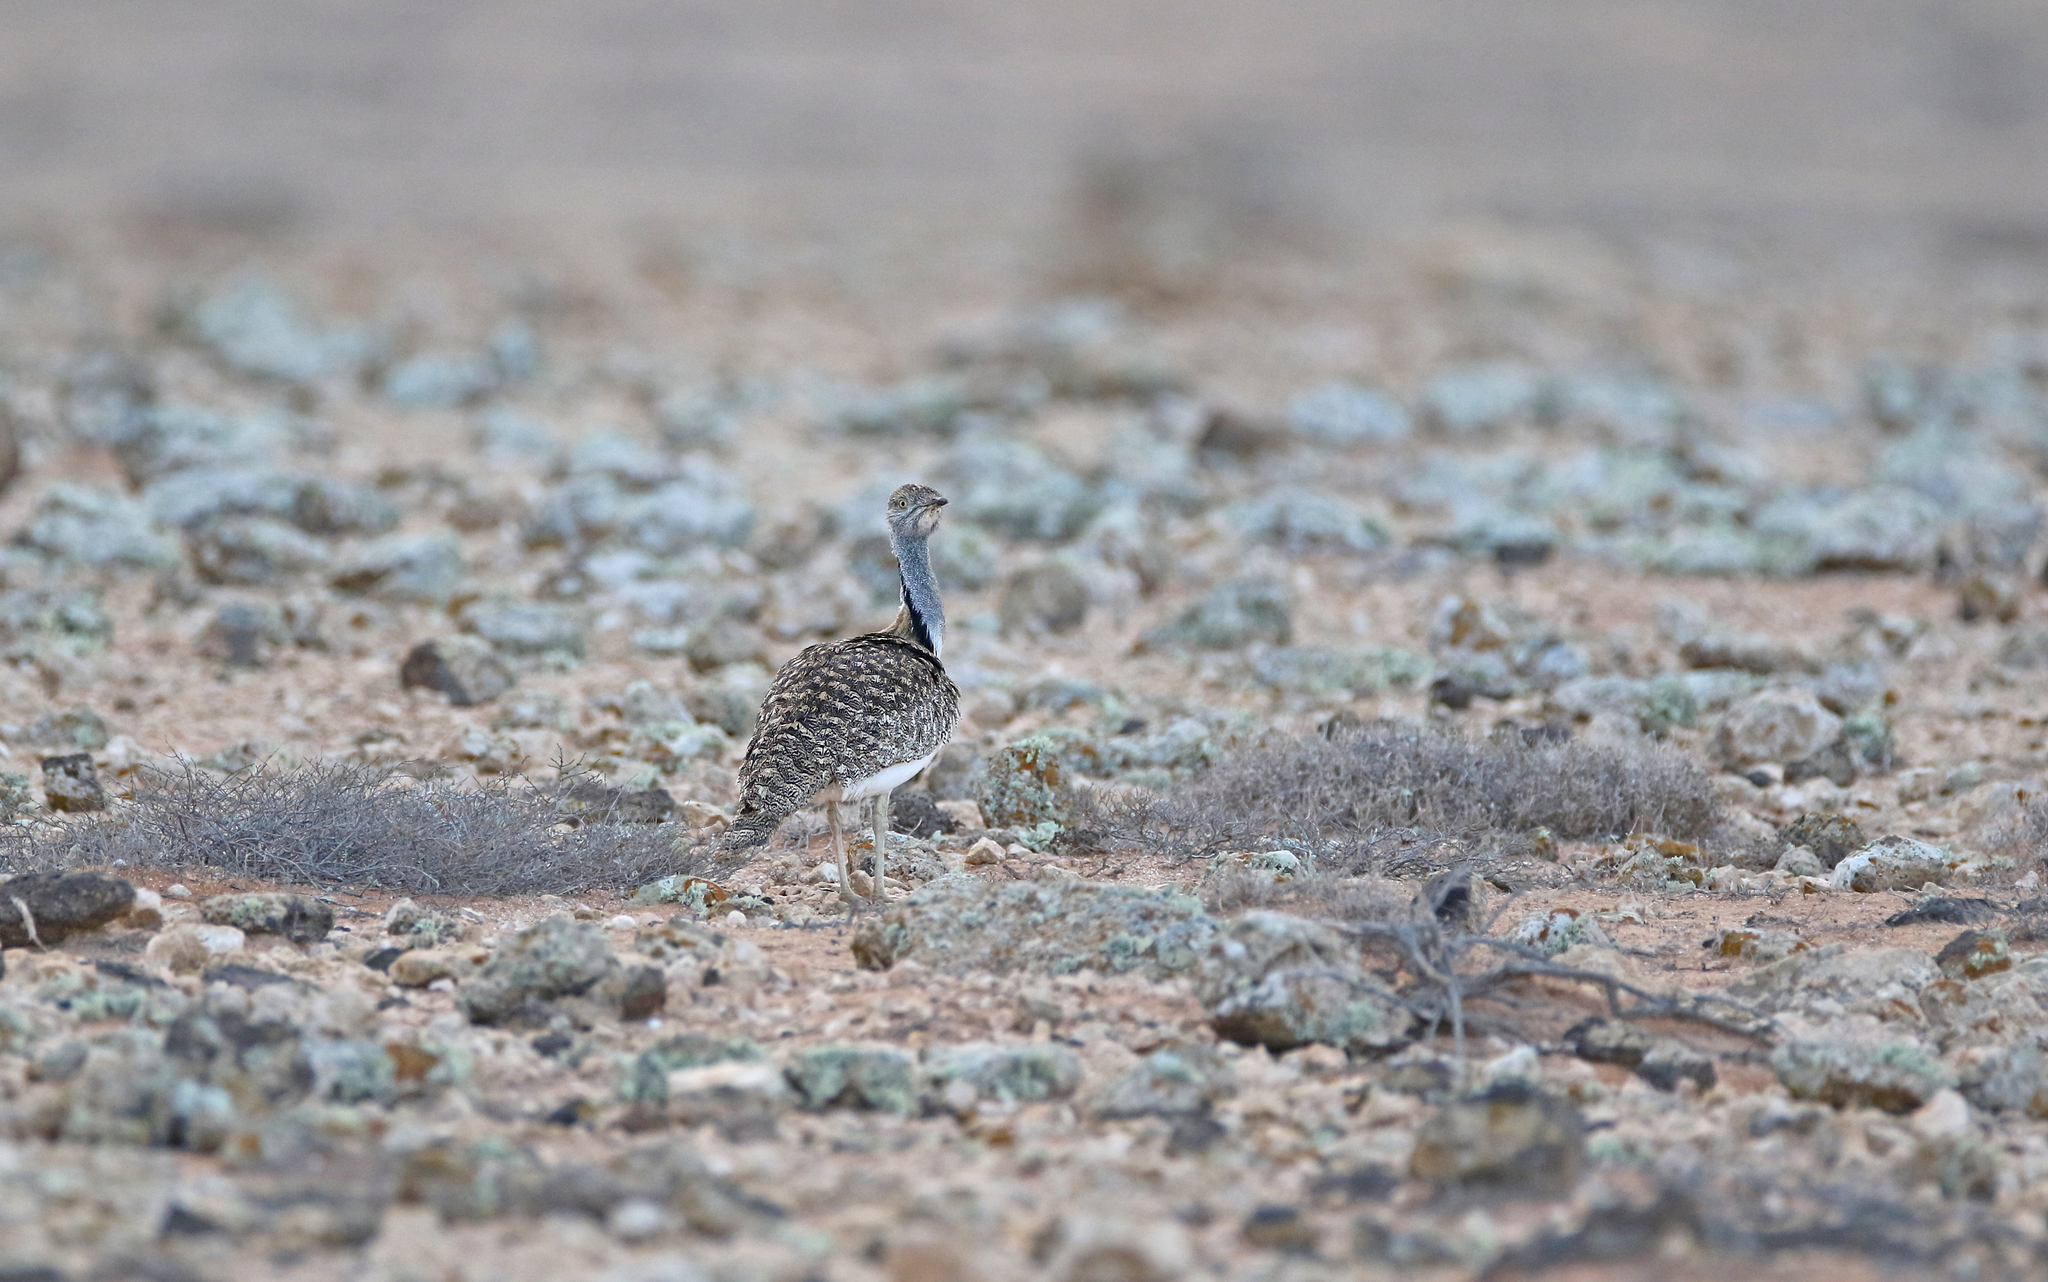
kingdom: Animalia
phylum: Chordata
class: Aves
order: Otidiformes
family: Otididae
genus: Chlamydotis
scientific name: Chlamydotis undulata
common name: Houbara bustard
